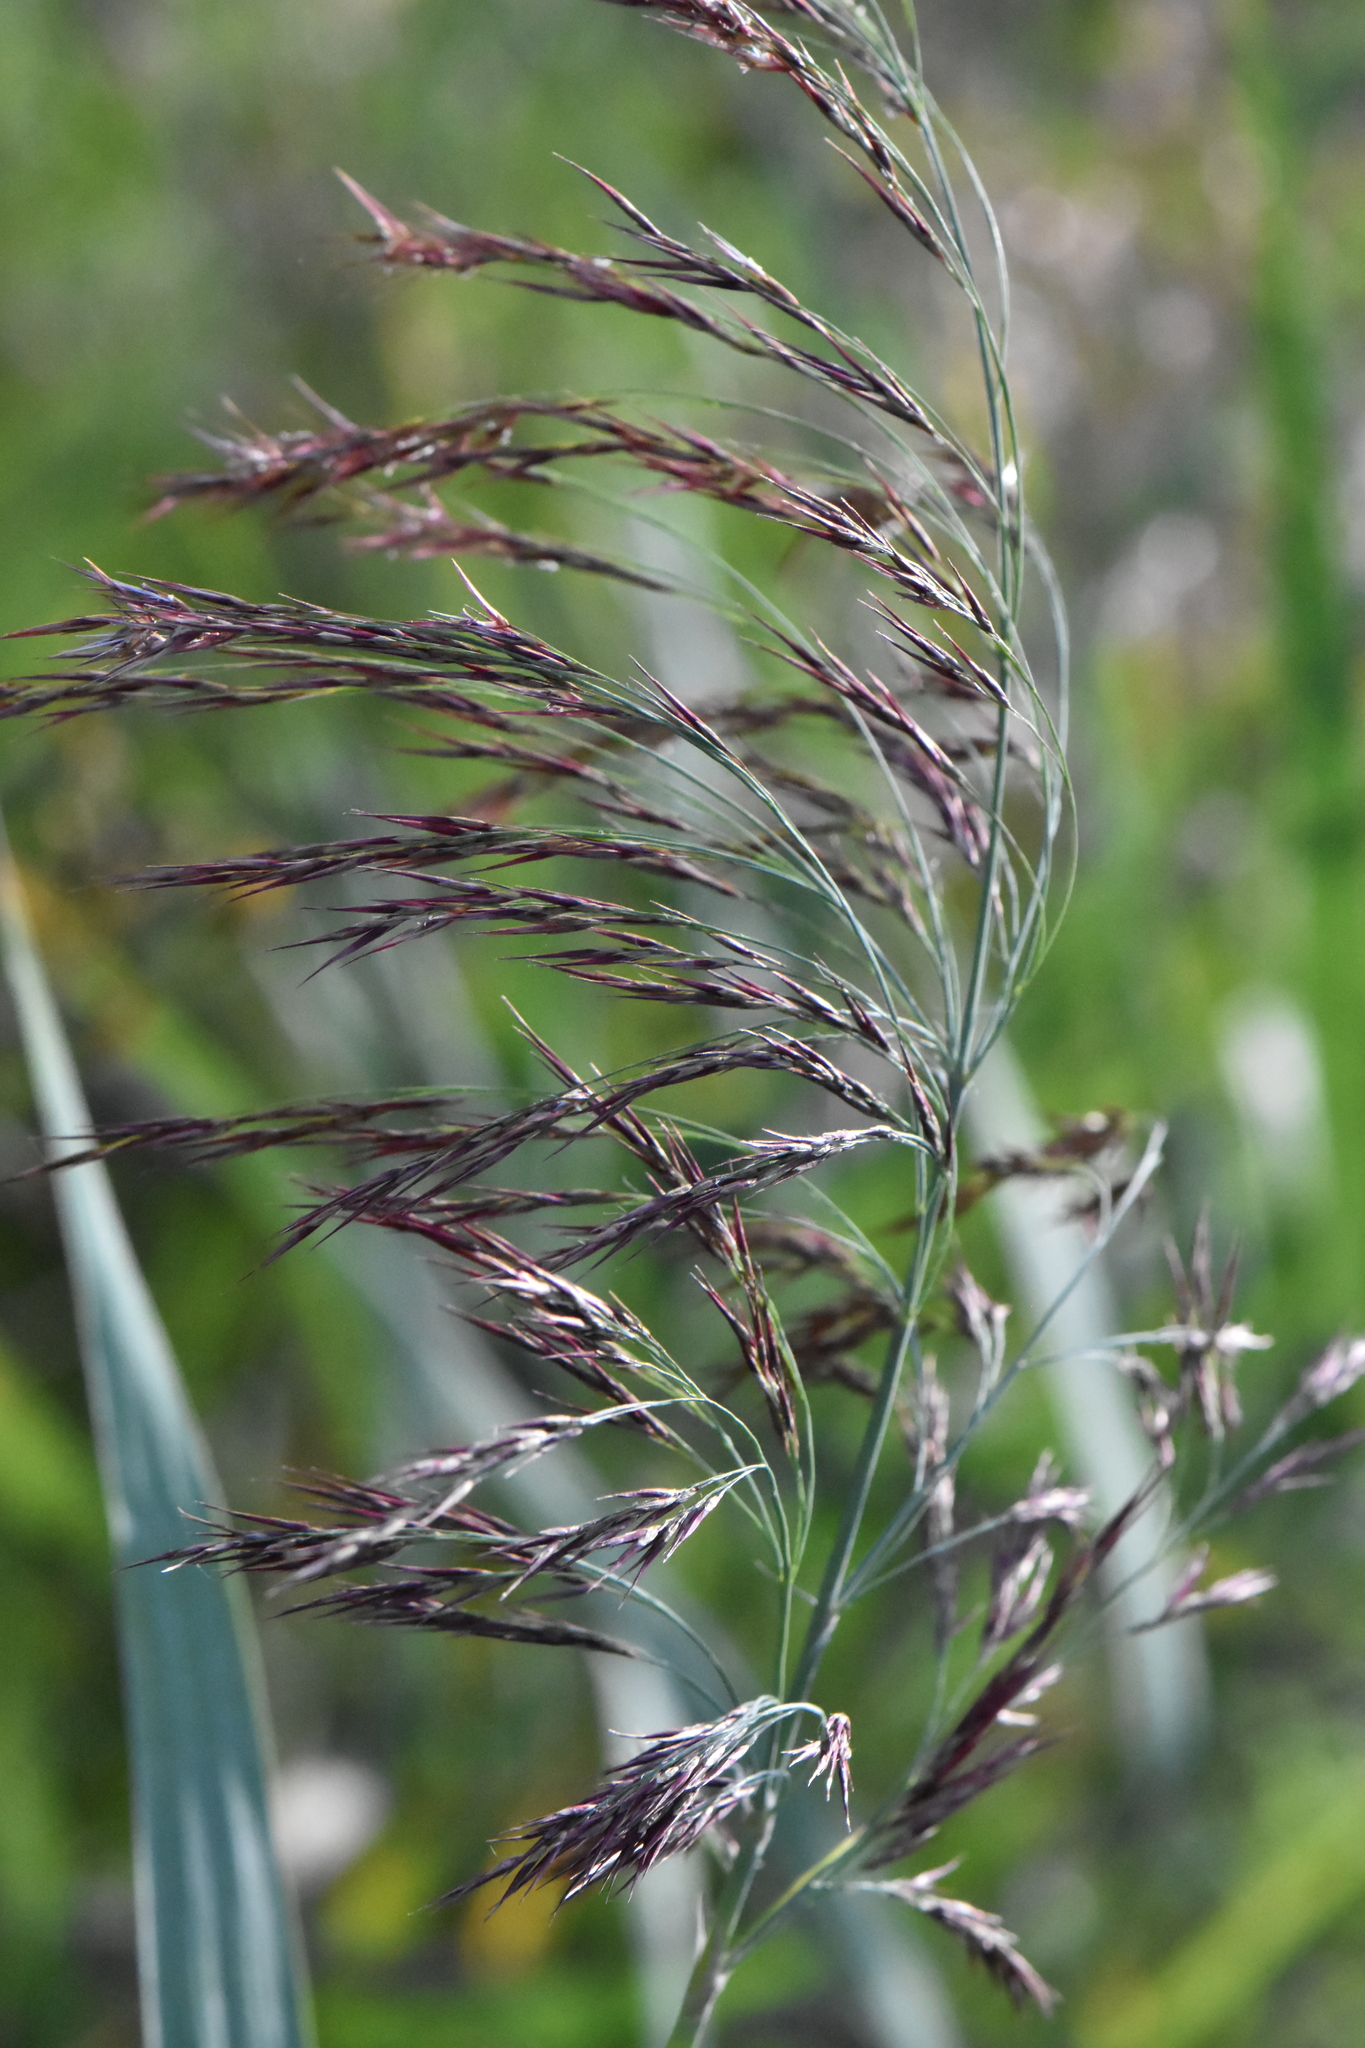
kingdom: Plantae
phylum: Tracheophyta
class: Liliopsida
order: Poales
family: Poaceae
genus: Phragmites
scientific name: Phragmites australis
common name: Common reed
